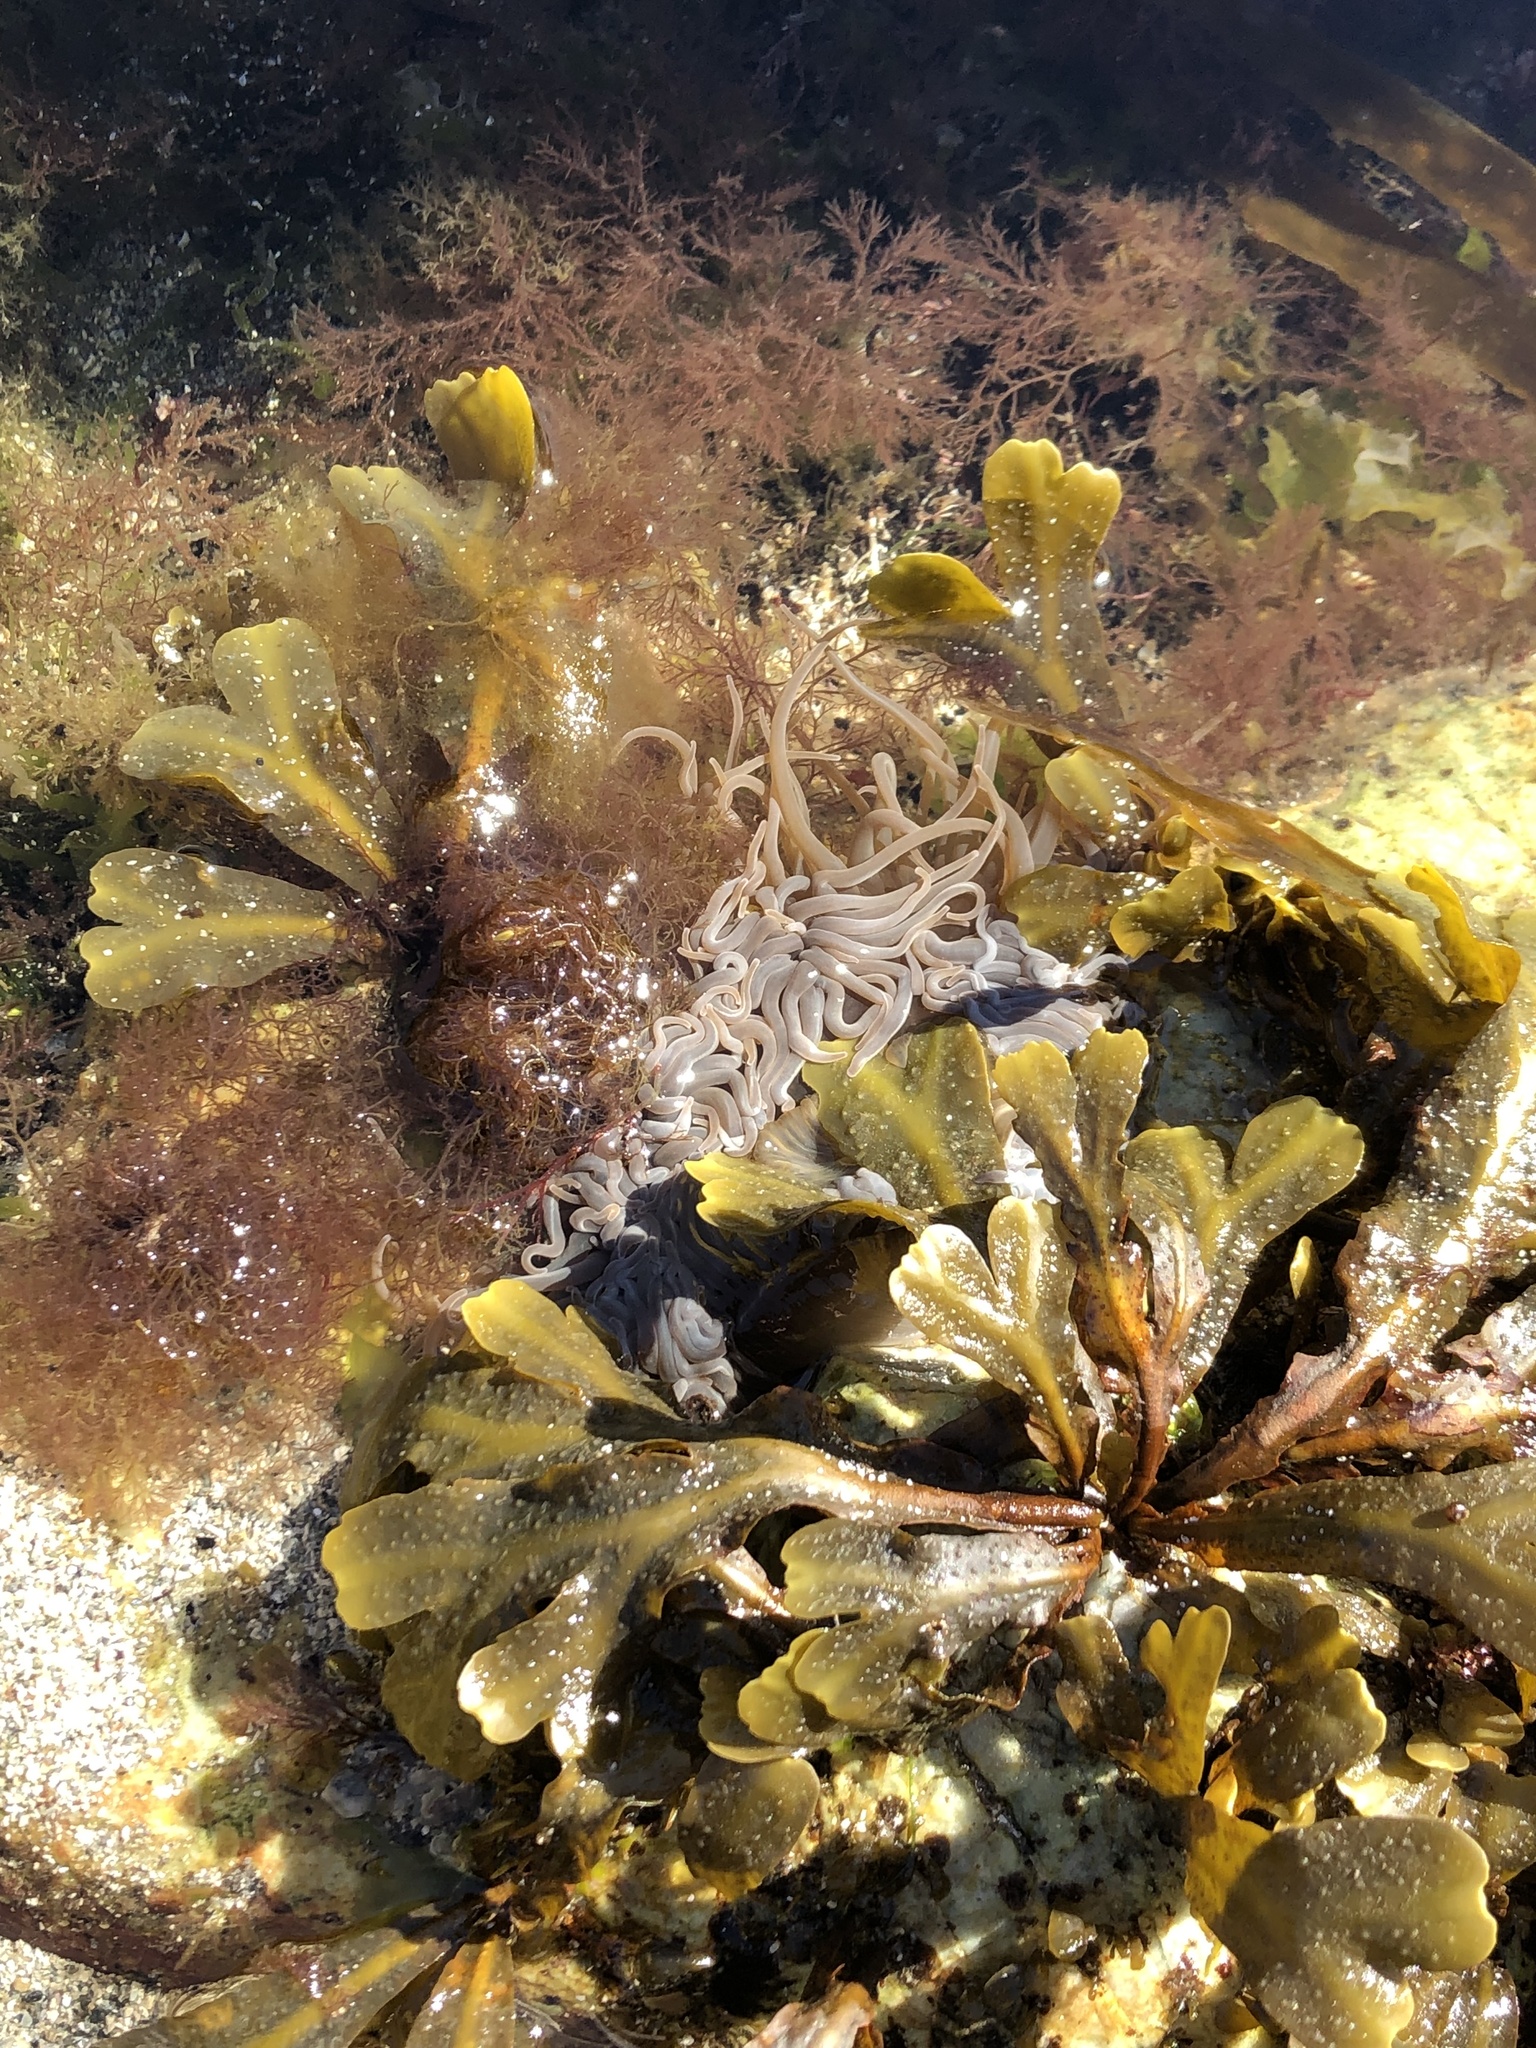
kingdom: Animalia
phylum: Cnidaria
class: Anthozoa
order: Actiniaria
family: Actiniidae
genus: Anemonia
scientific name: Anemonia viridis
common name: Snakelocks anemone
